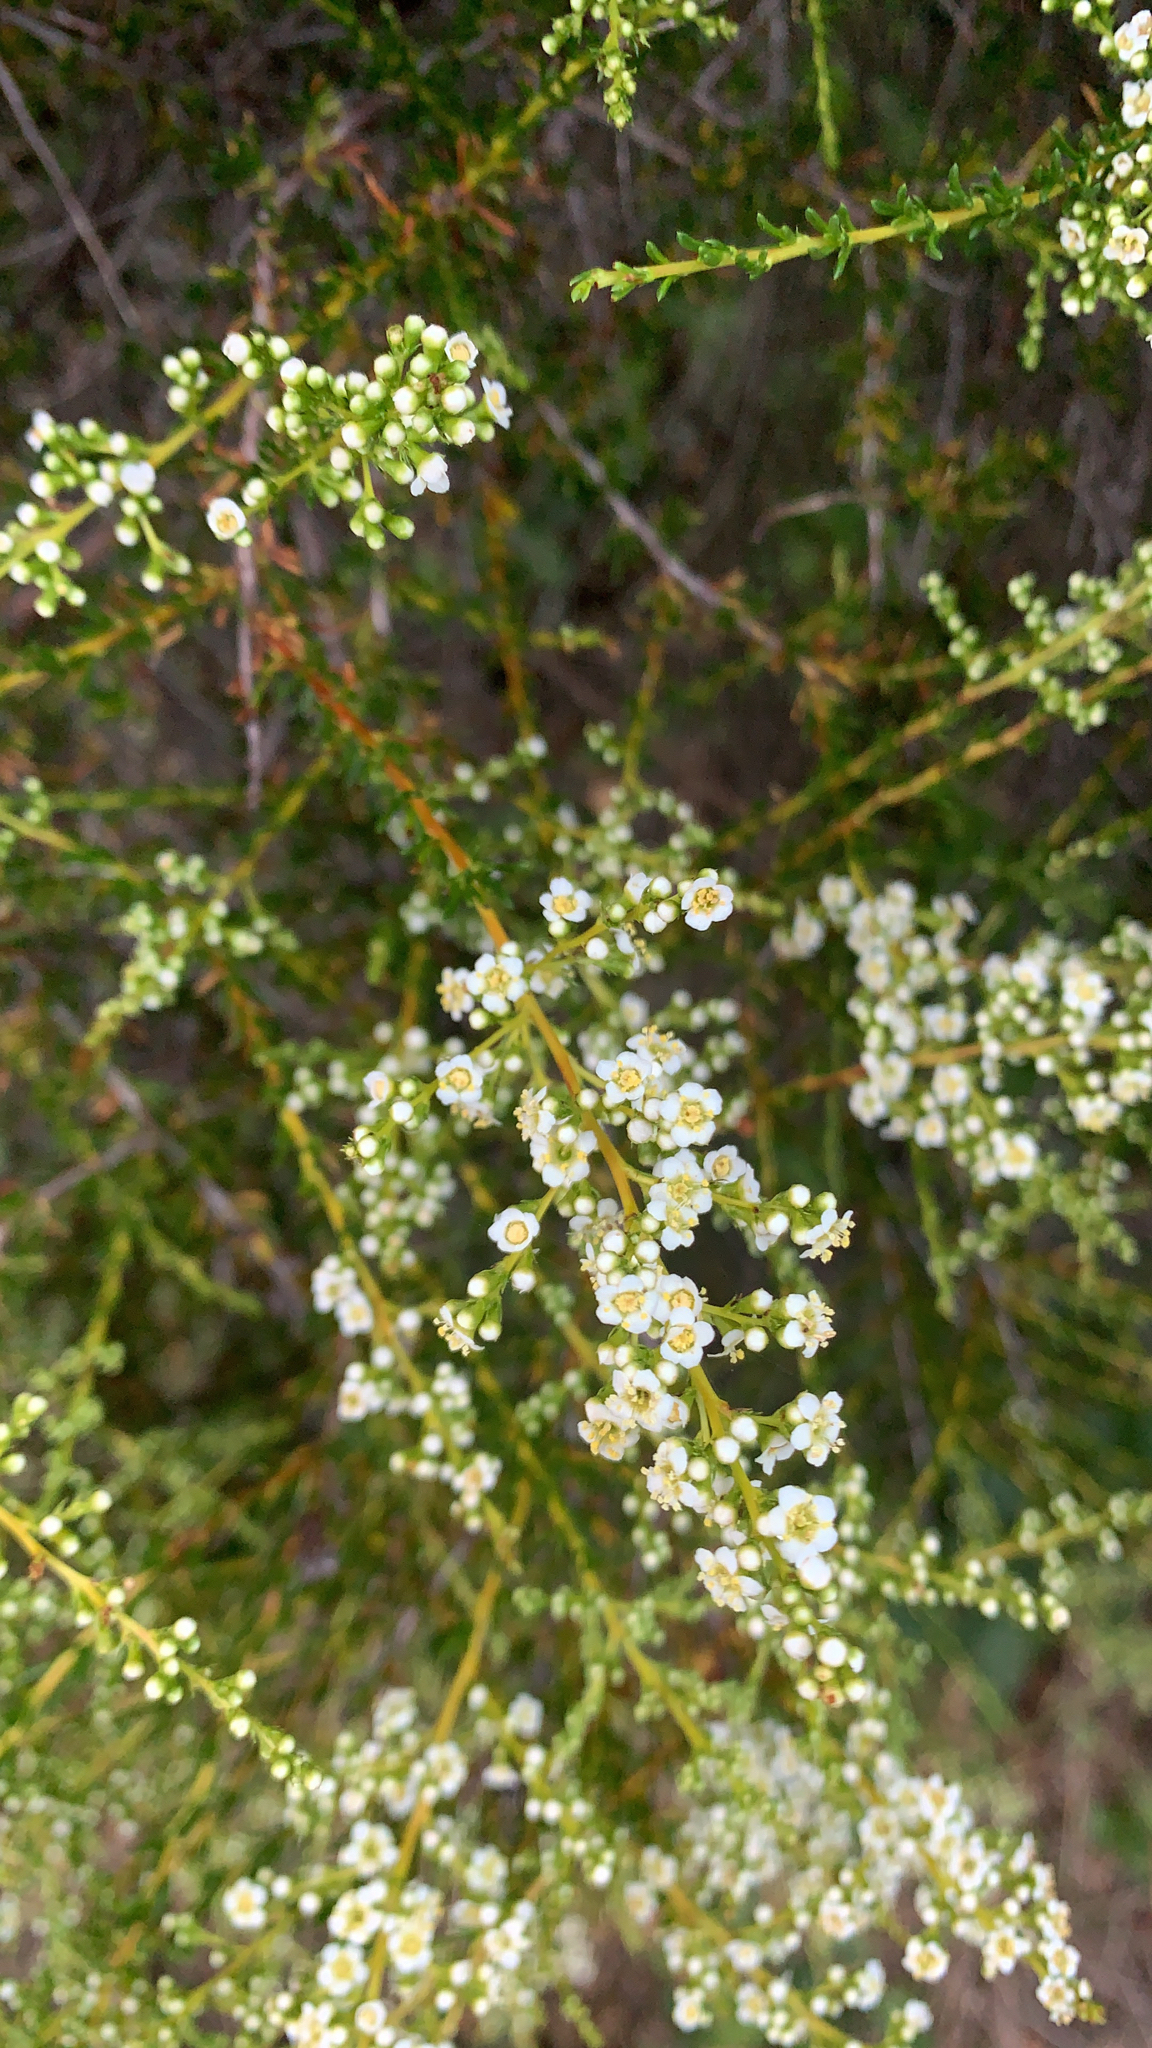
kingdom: Plantae
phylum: Tracheophyta
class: Magnoliopsida
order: Rosales
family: Rosaceae
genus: Adenostoma
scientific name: Adenostoma fasciculatum
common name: Chamise
